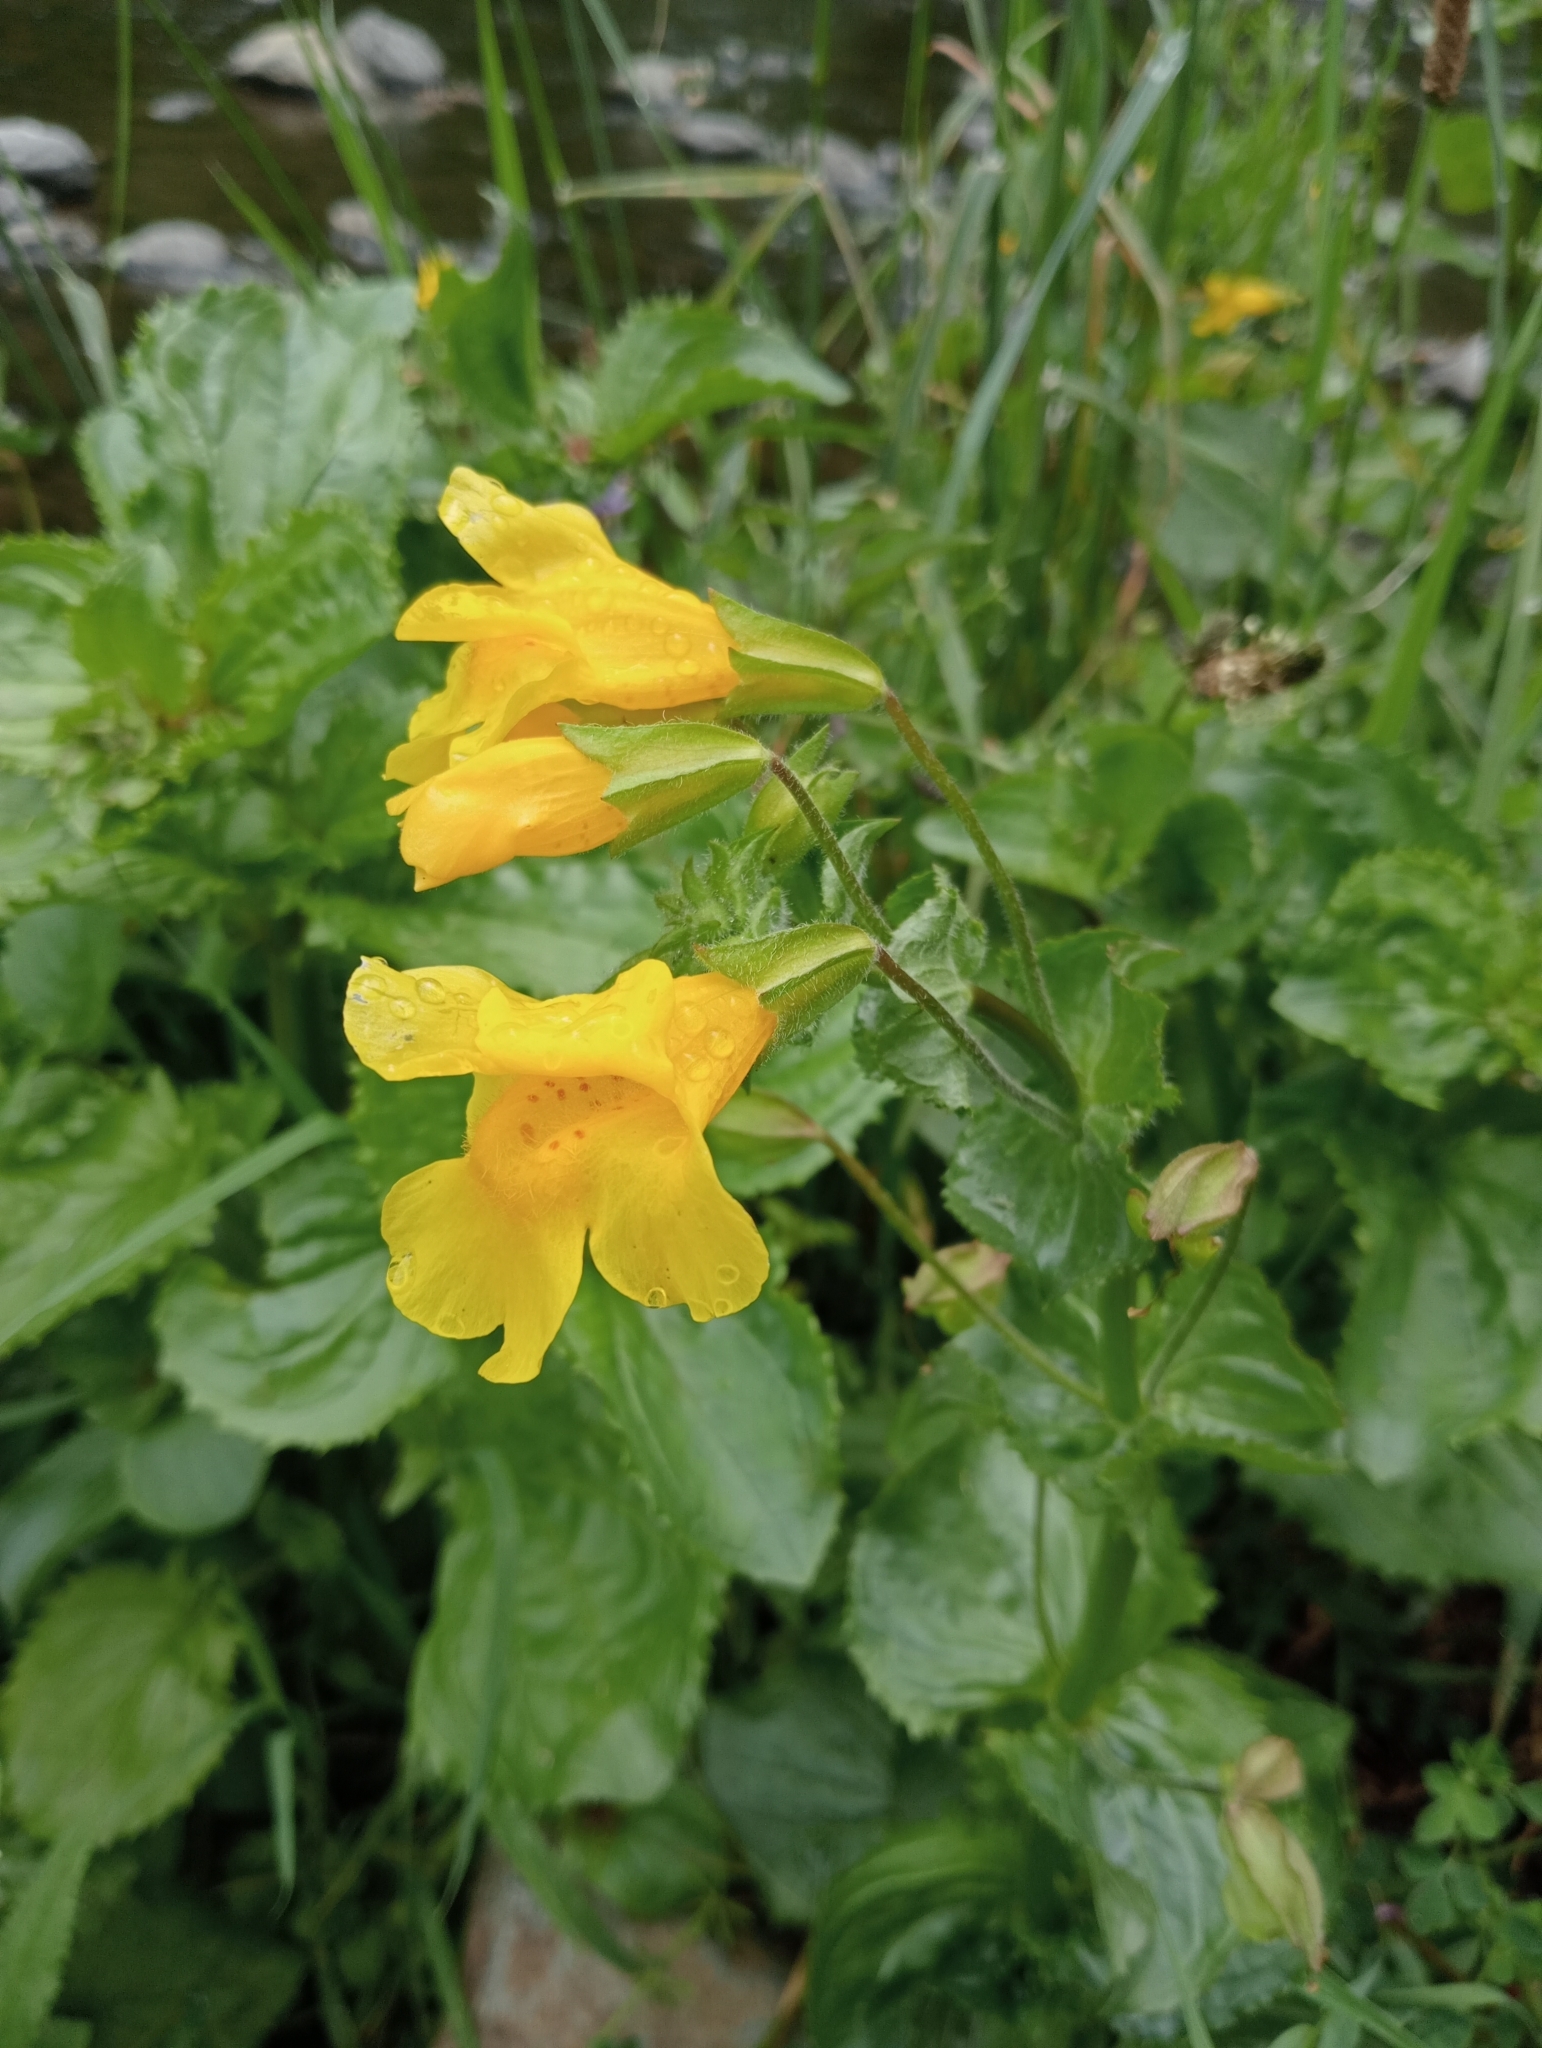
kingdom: Plantae
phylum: Tracheophyta
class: Magnoliopsida
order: Lamiales
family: Phrymaceae
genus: Erythranthe
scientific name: Erythranthe guttata
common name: Monkeyflower
